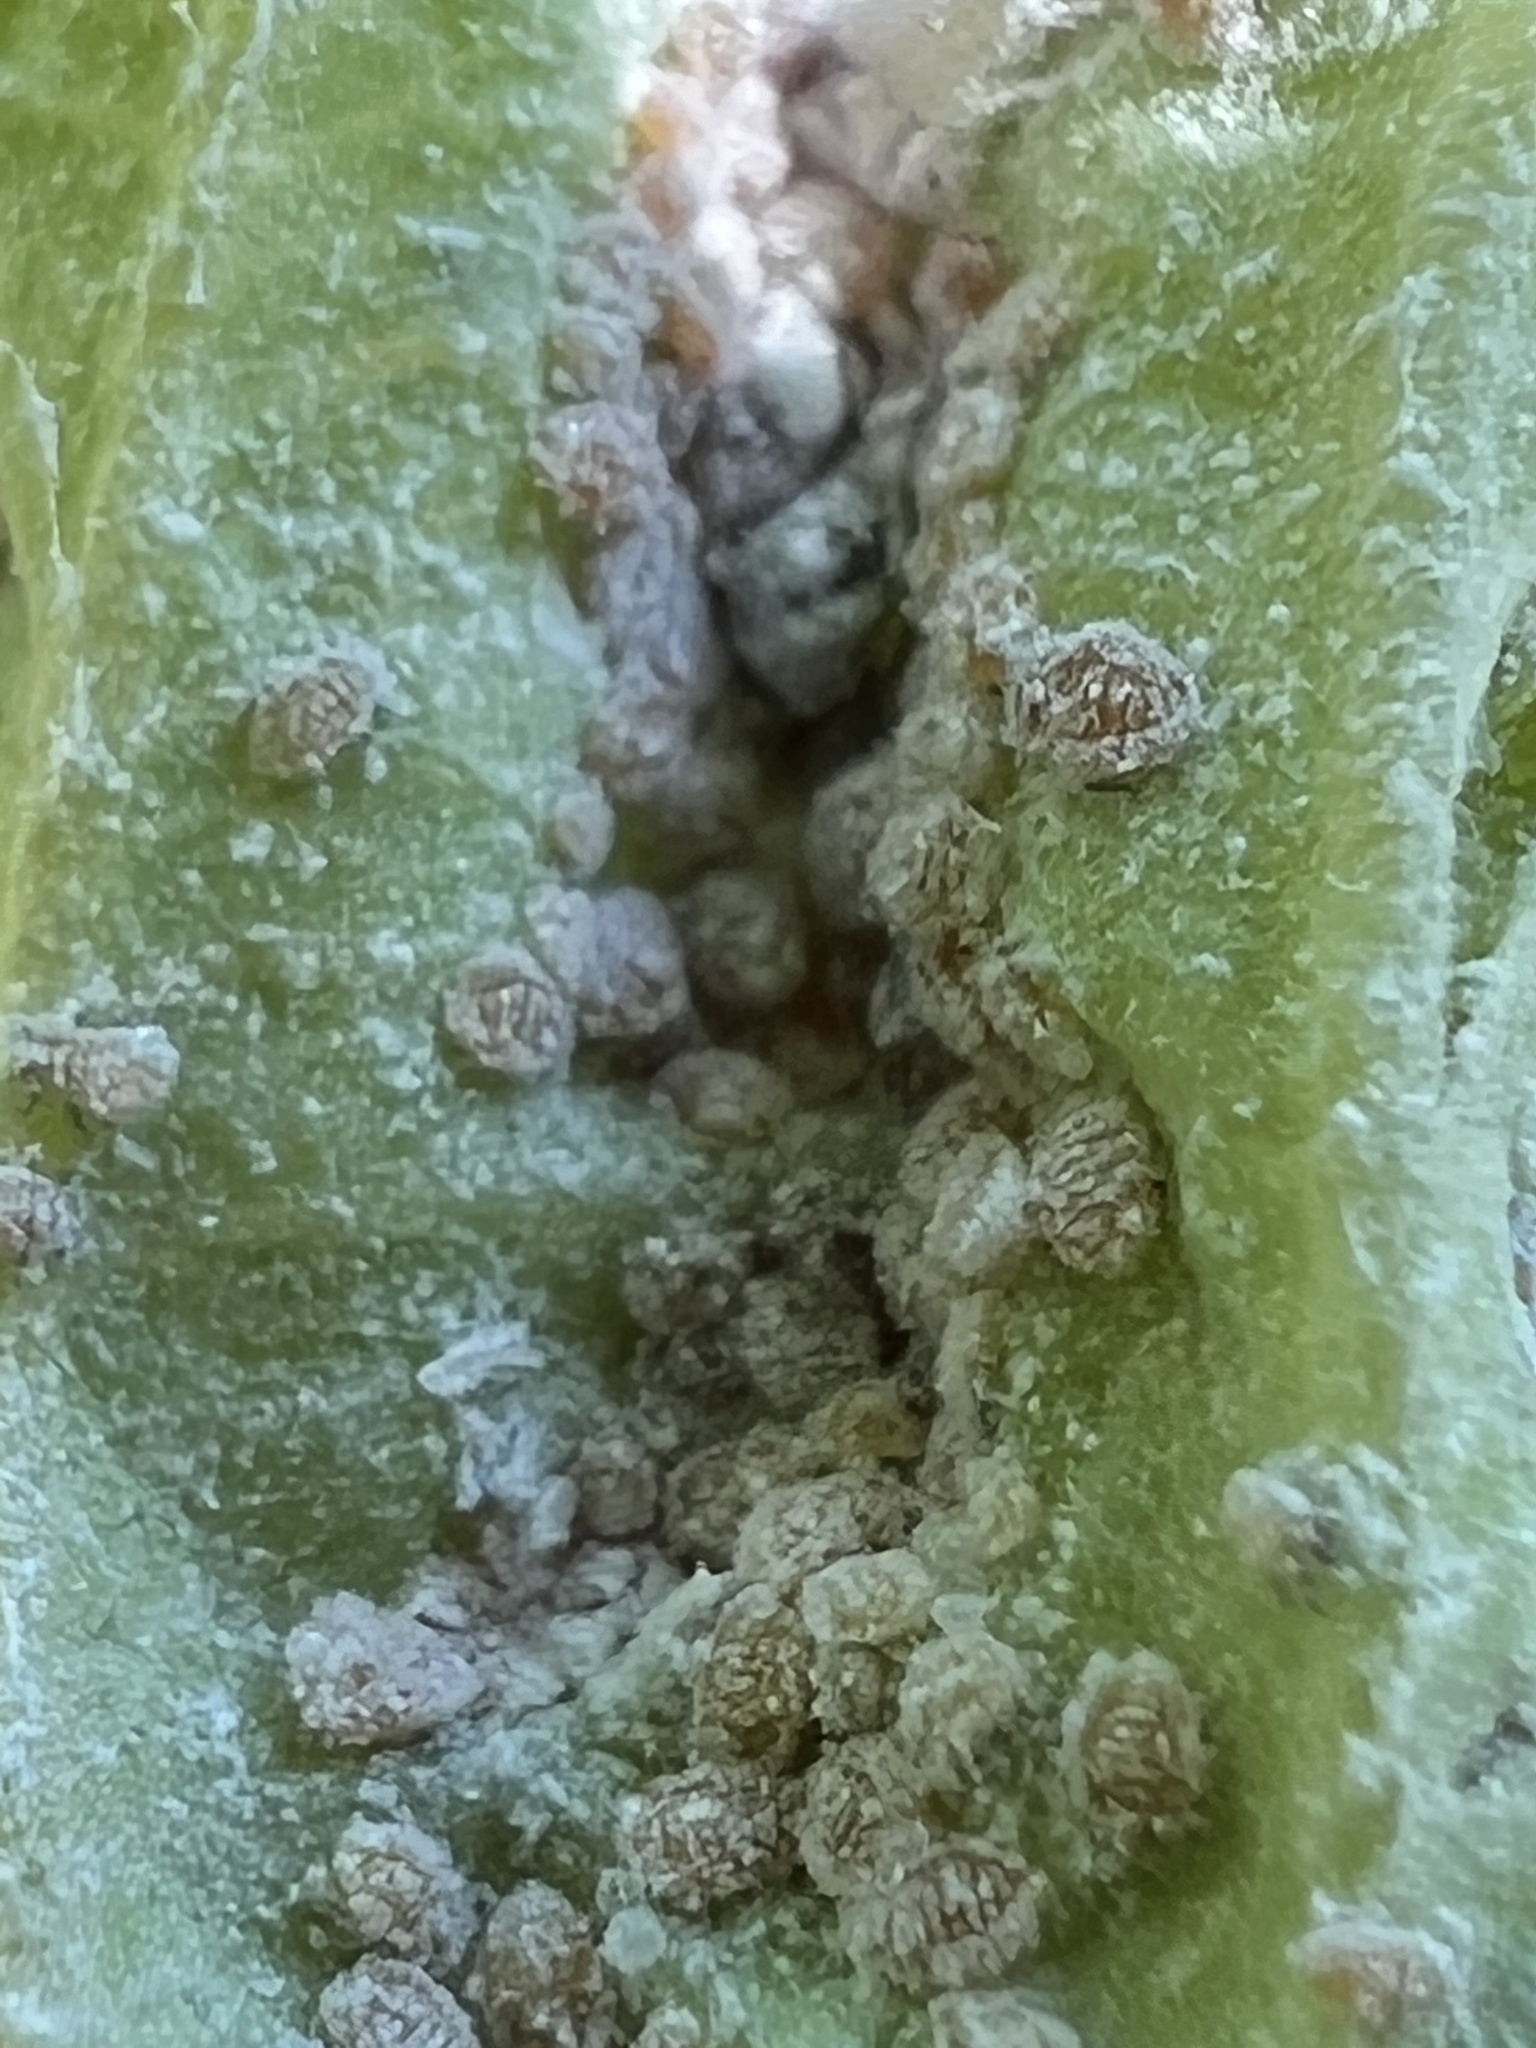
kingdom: Animalia
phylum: Arthropoda
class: Insecta
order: Hemiptera
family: Aphididae
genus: Hamamelistes
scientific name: Hamamelistes spinosus
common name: Witch hazel gall aphid
